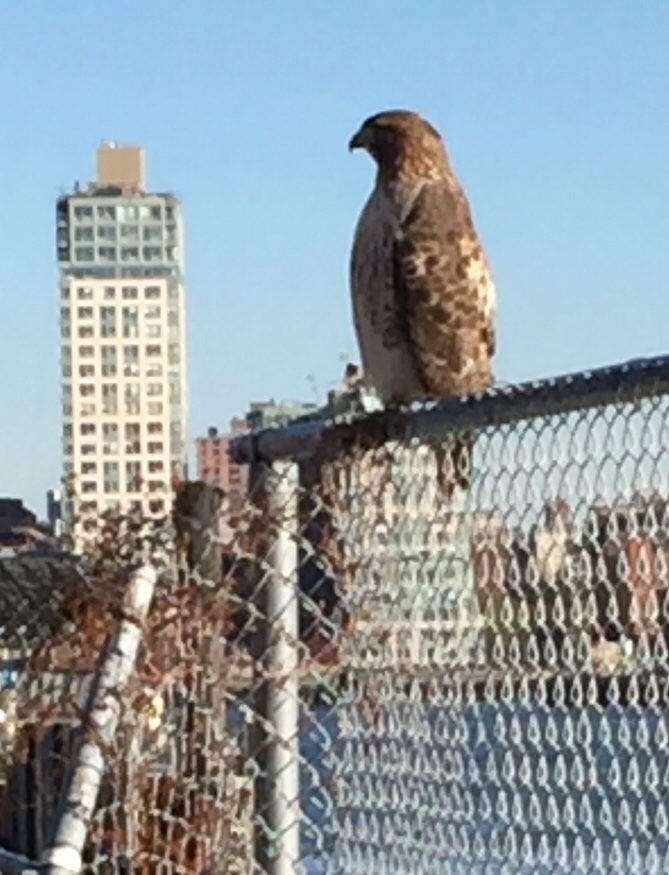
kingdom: Animalia
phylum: Chordata
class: Aves
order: Accipitriformes
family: Accipitridae
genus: Buteo
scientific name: Buteo jamaicensis
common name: Red-tailed hawk
